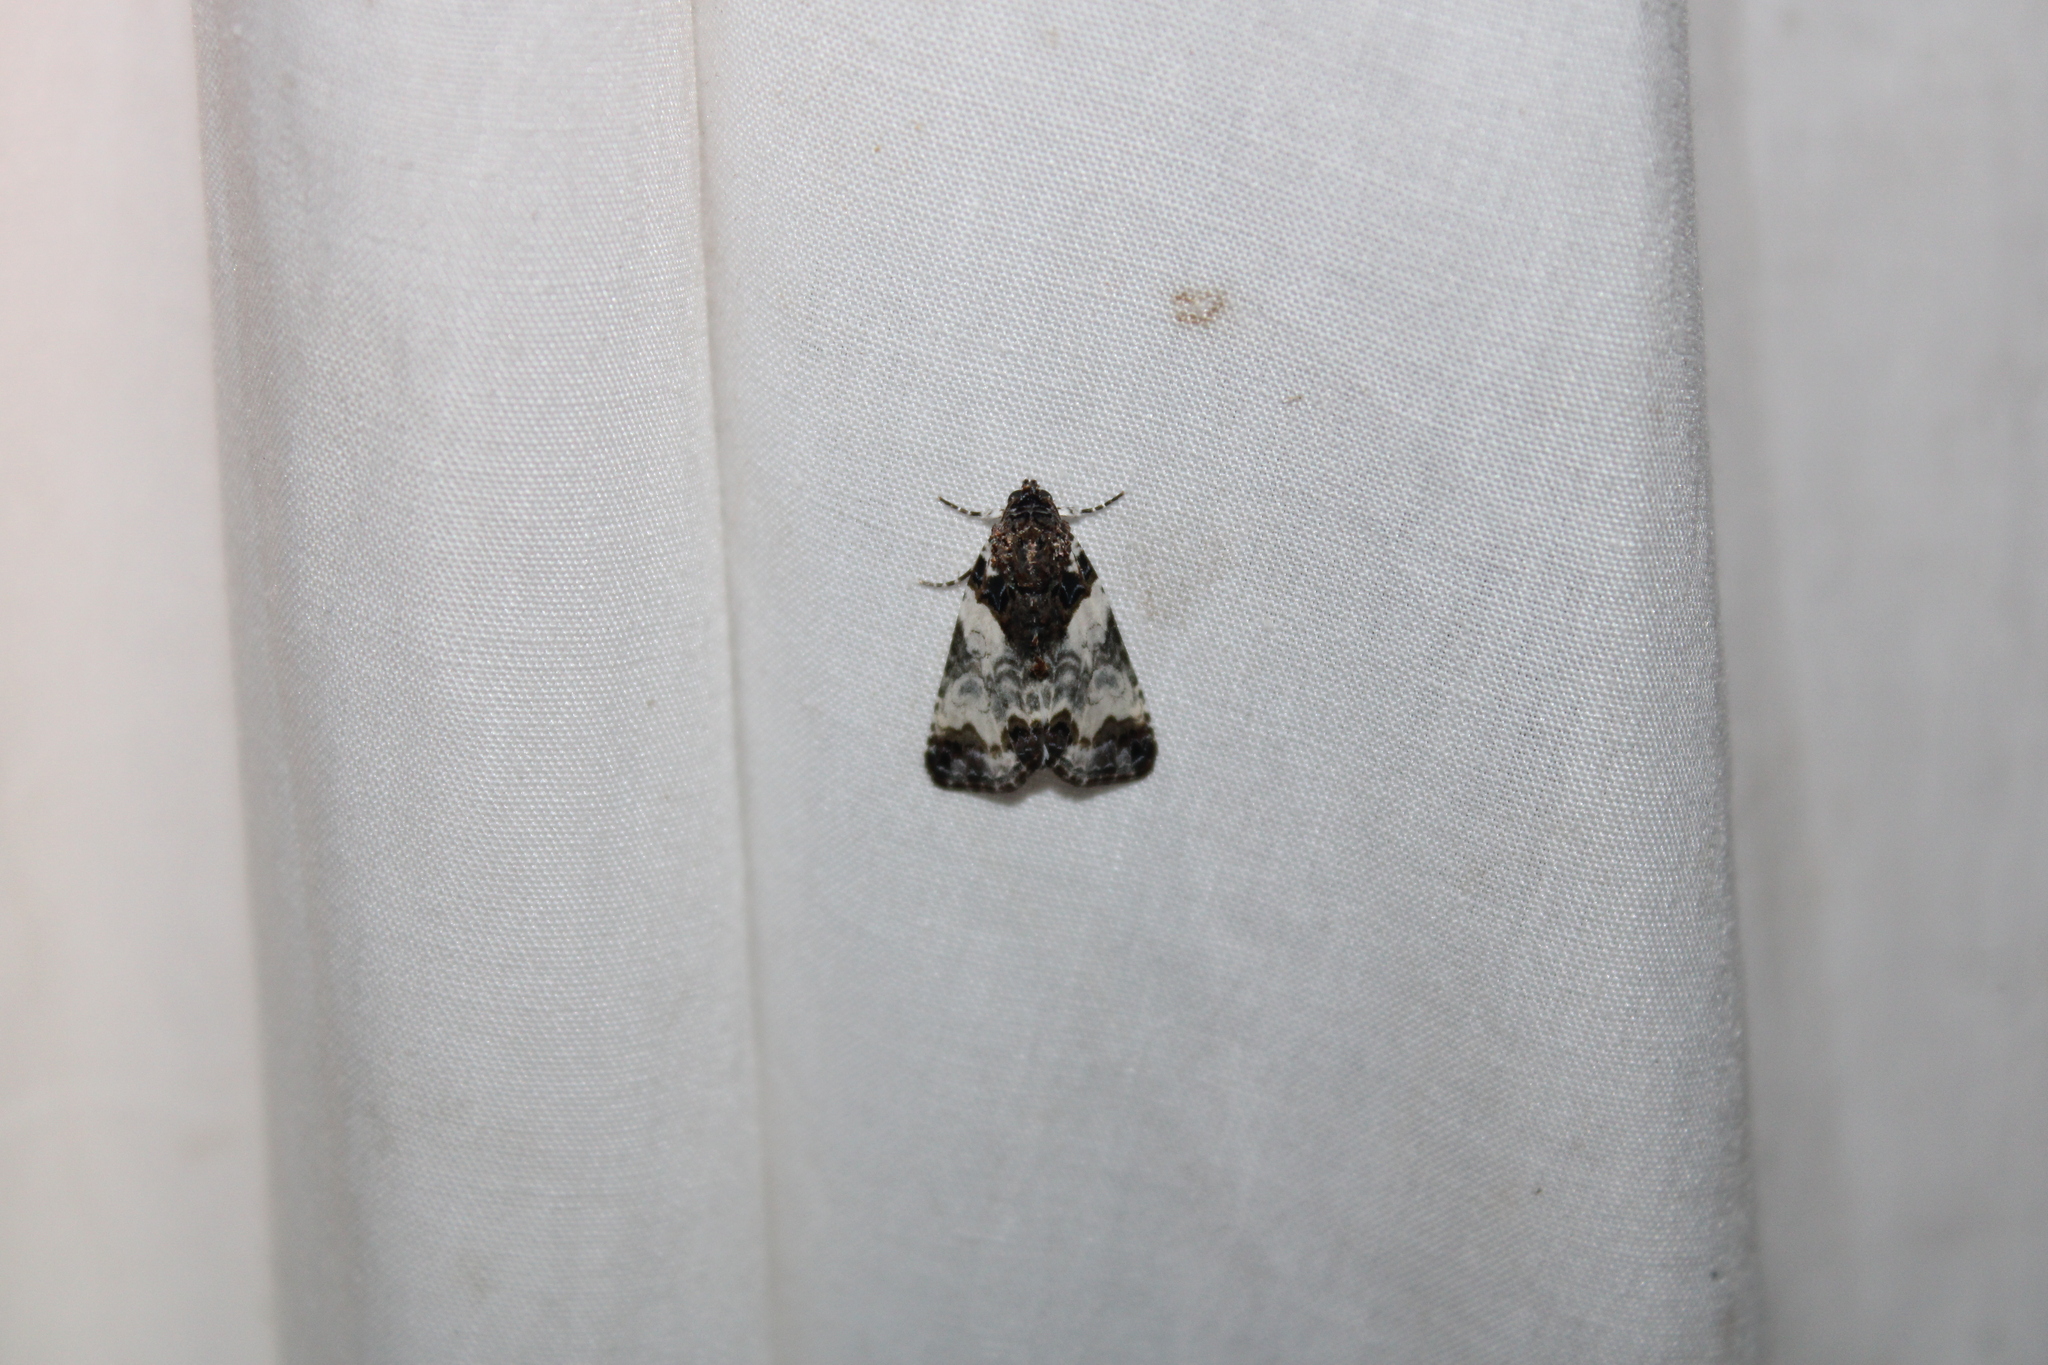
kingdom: Animalia
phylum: Arthropoda
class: Insecta
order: Lepidoptera
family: Noctuidae
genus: Cerma
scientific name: Cerma cerintha
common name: Tufted bird-dropping moth
